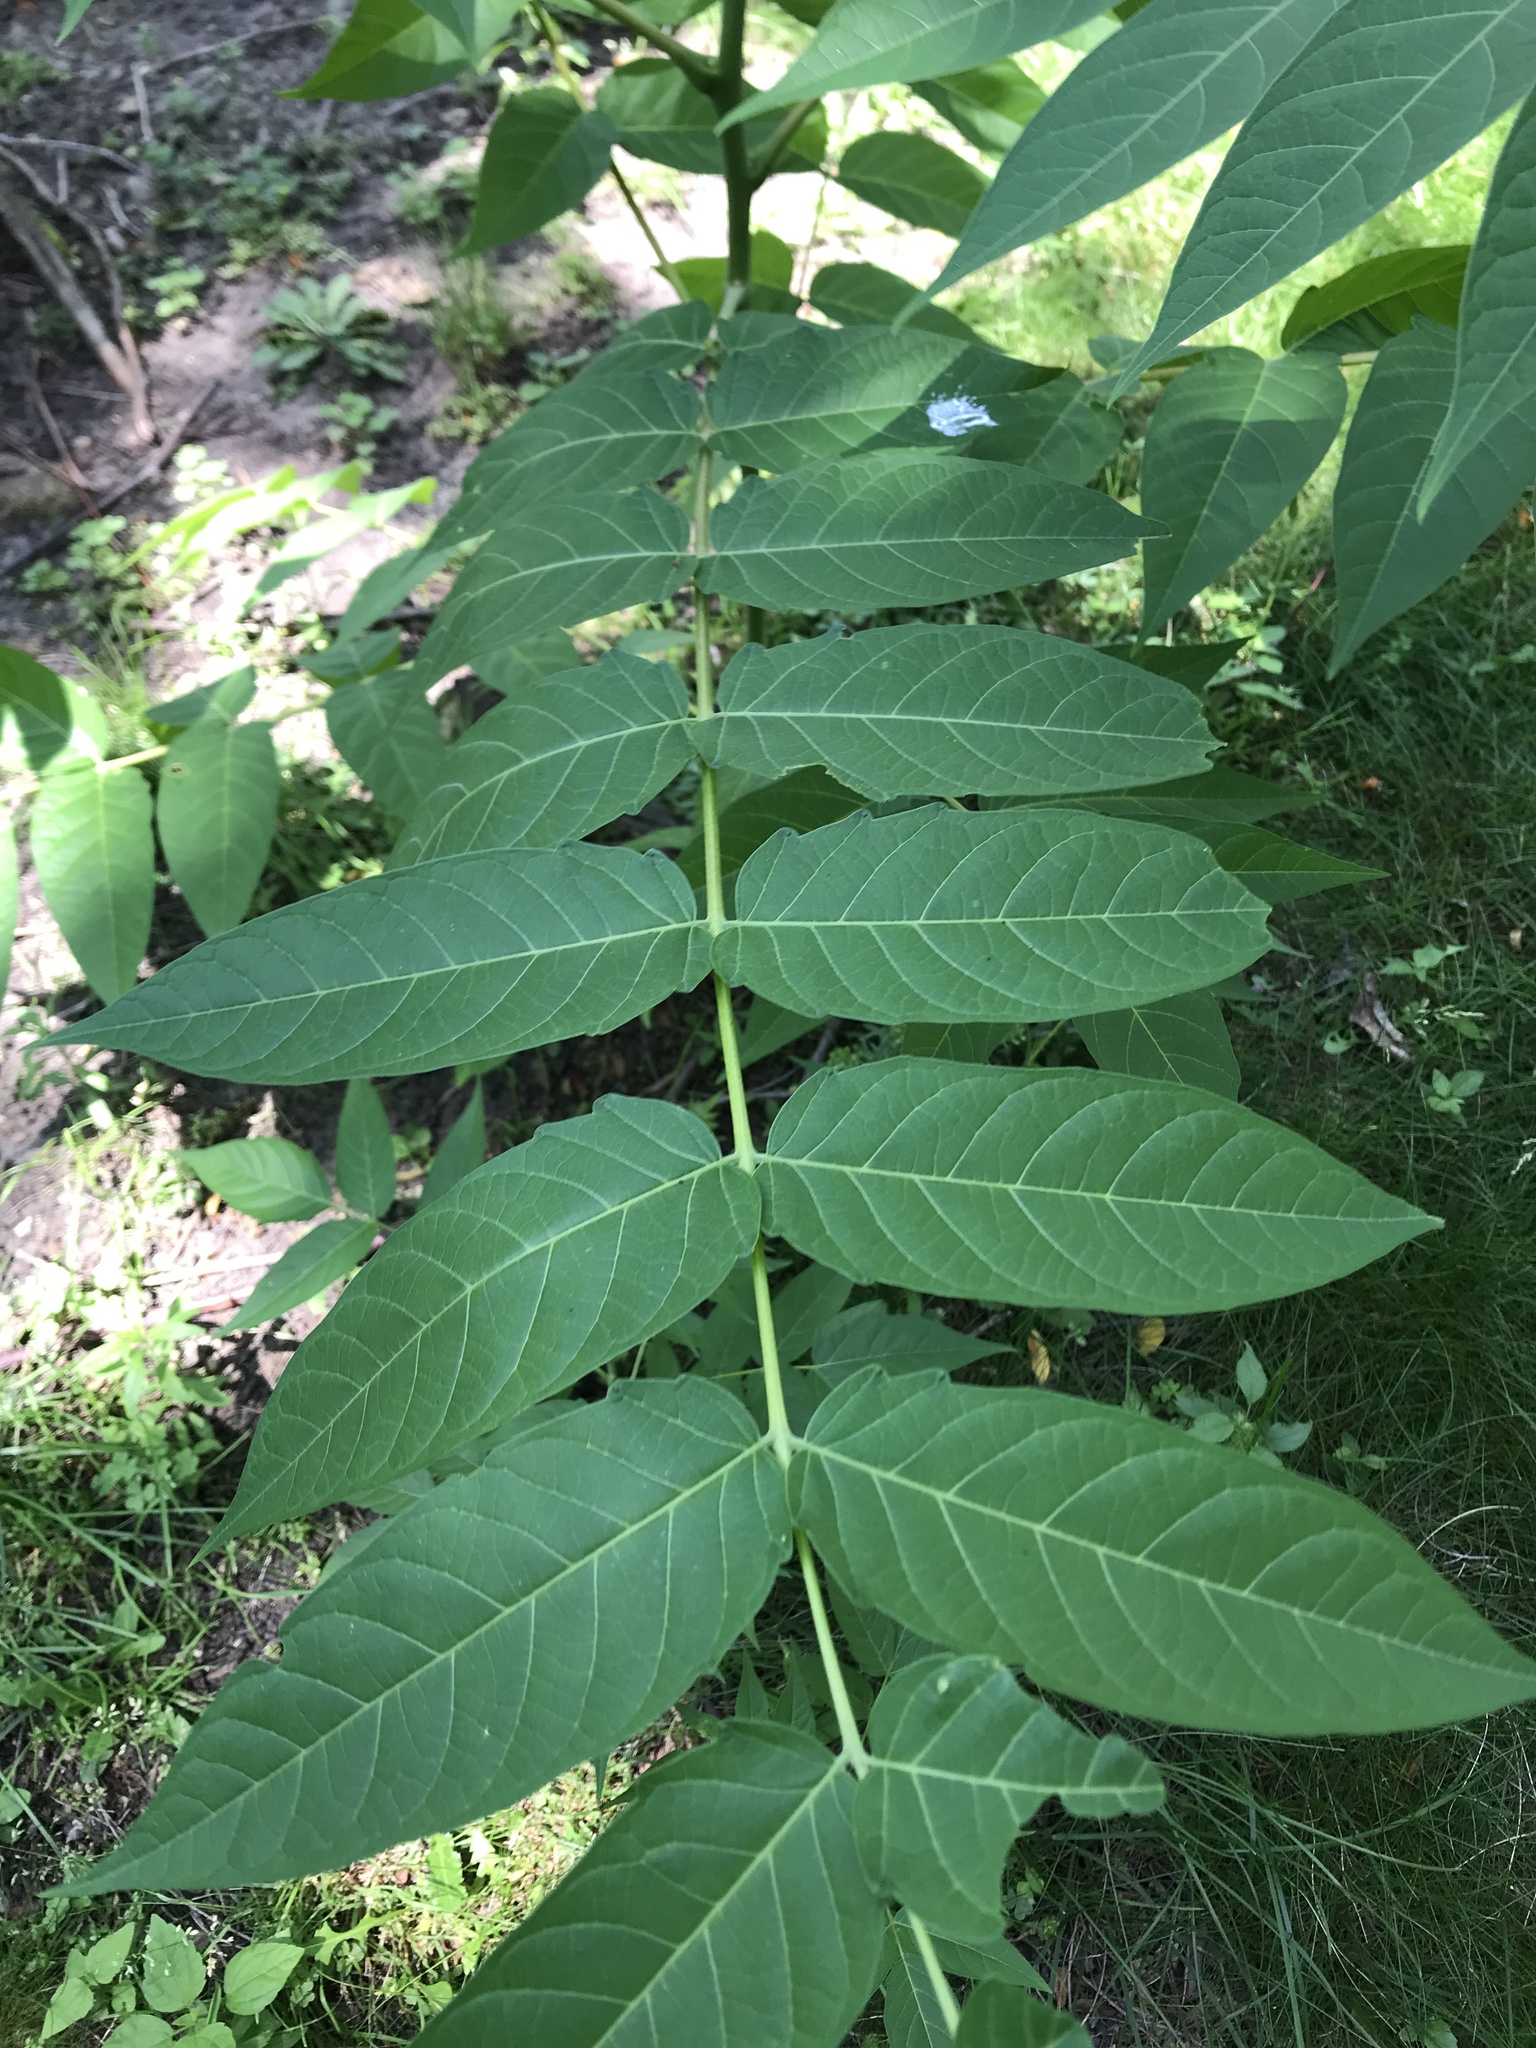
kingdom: Plantae
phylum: Tracheophyta
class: Magnoliopsida
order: Sapindales
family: Simaroubaceae
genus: Ailanthus
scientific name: Ailanthus altissima
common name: Tree-of-heaven
